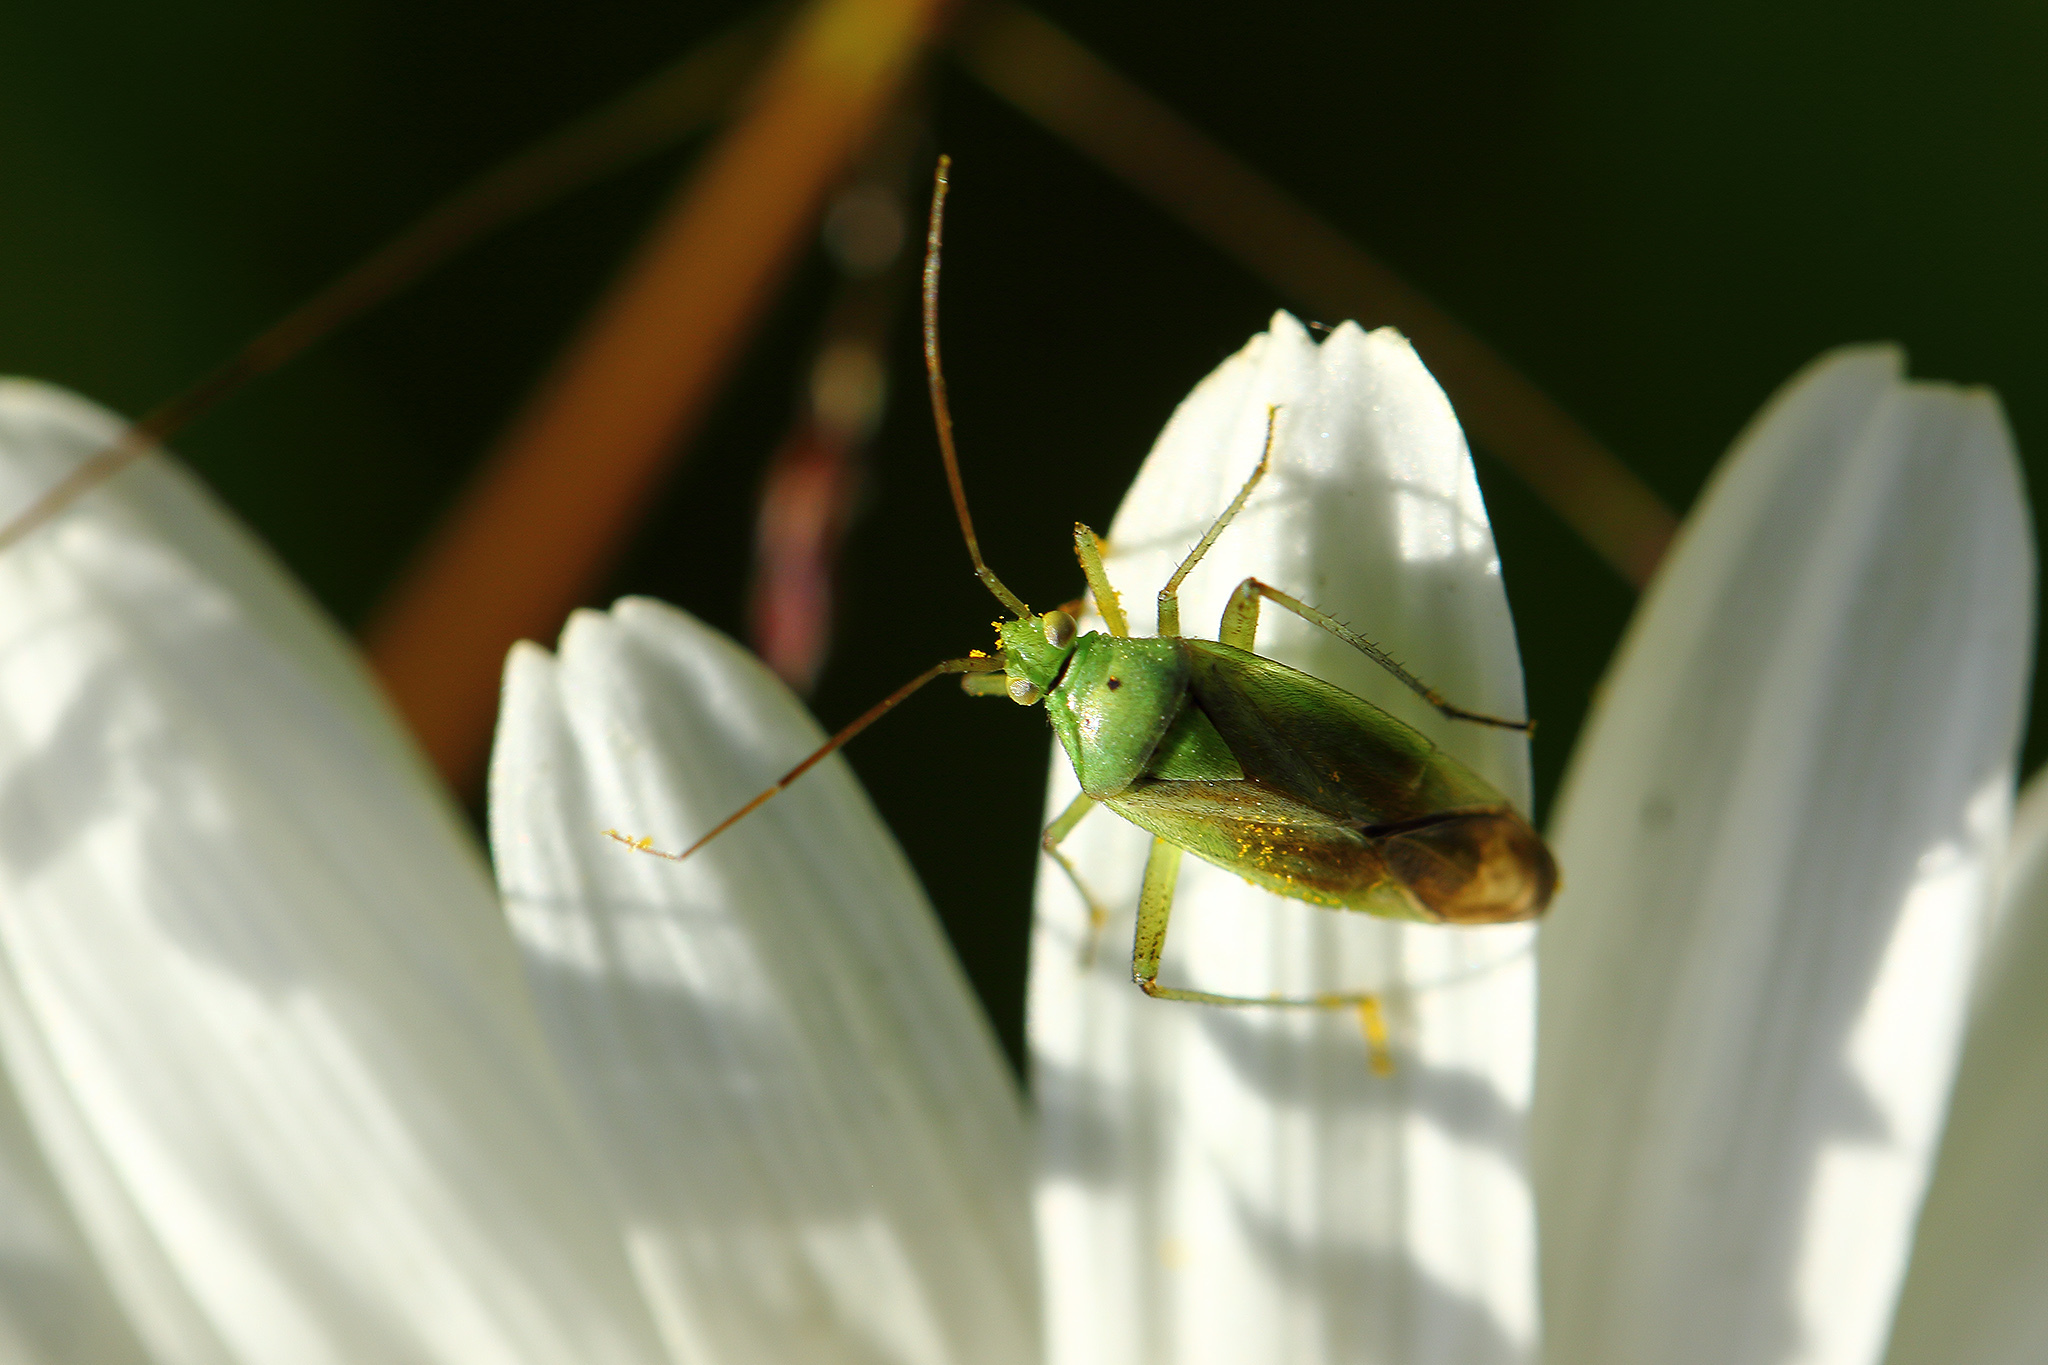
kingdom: Animalia
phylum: Arthropoda
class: Insecta
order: Hemiptera
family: Miridae
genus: Closterotomus
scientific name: Closterotomus norvegicus
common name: Plant bug
